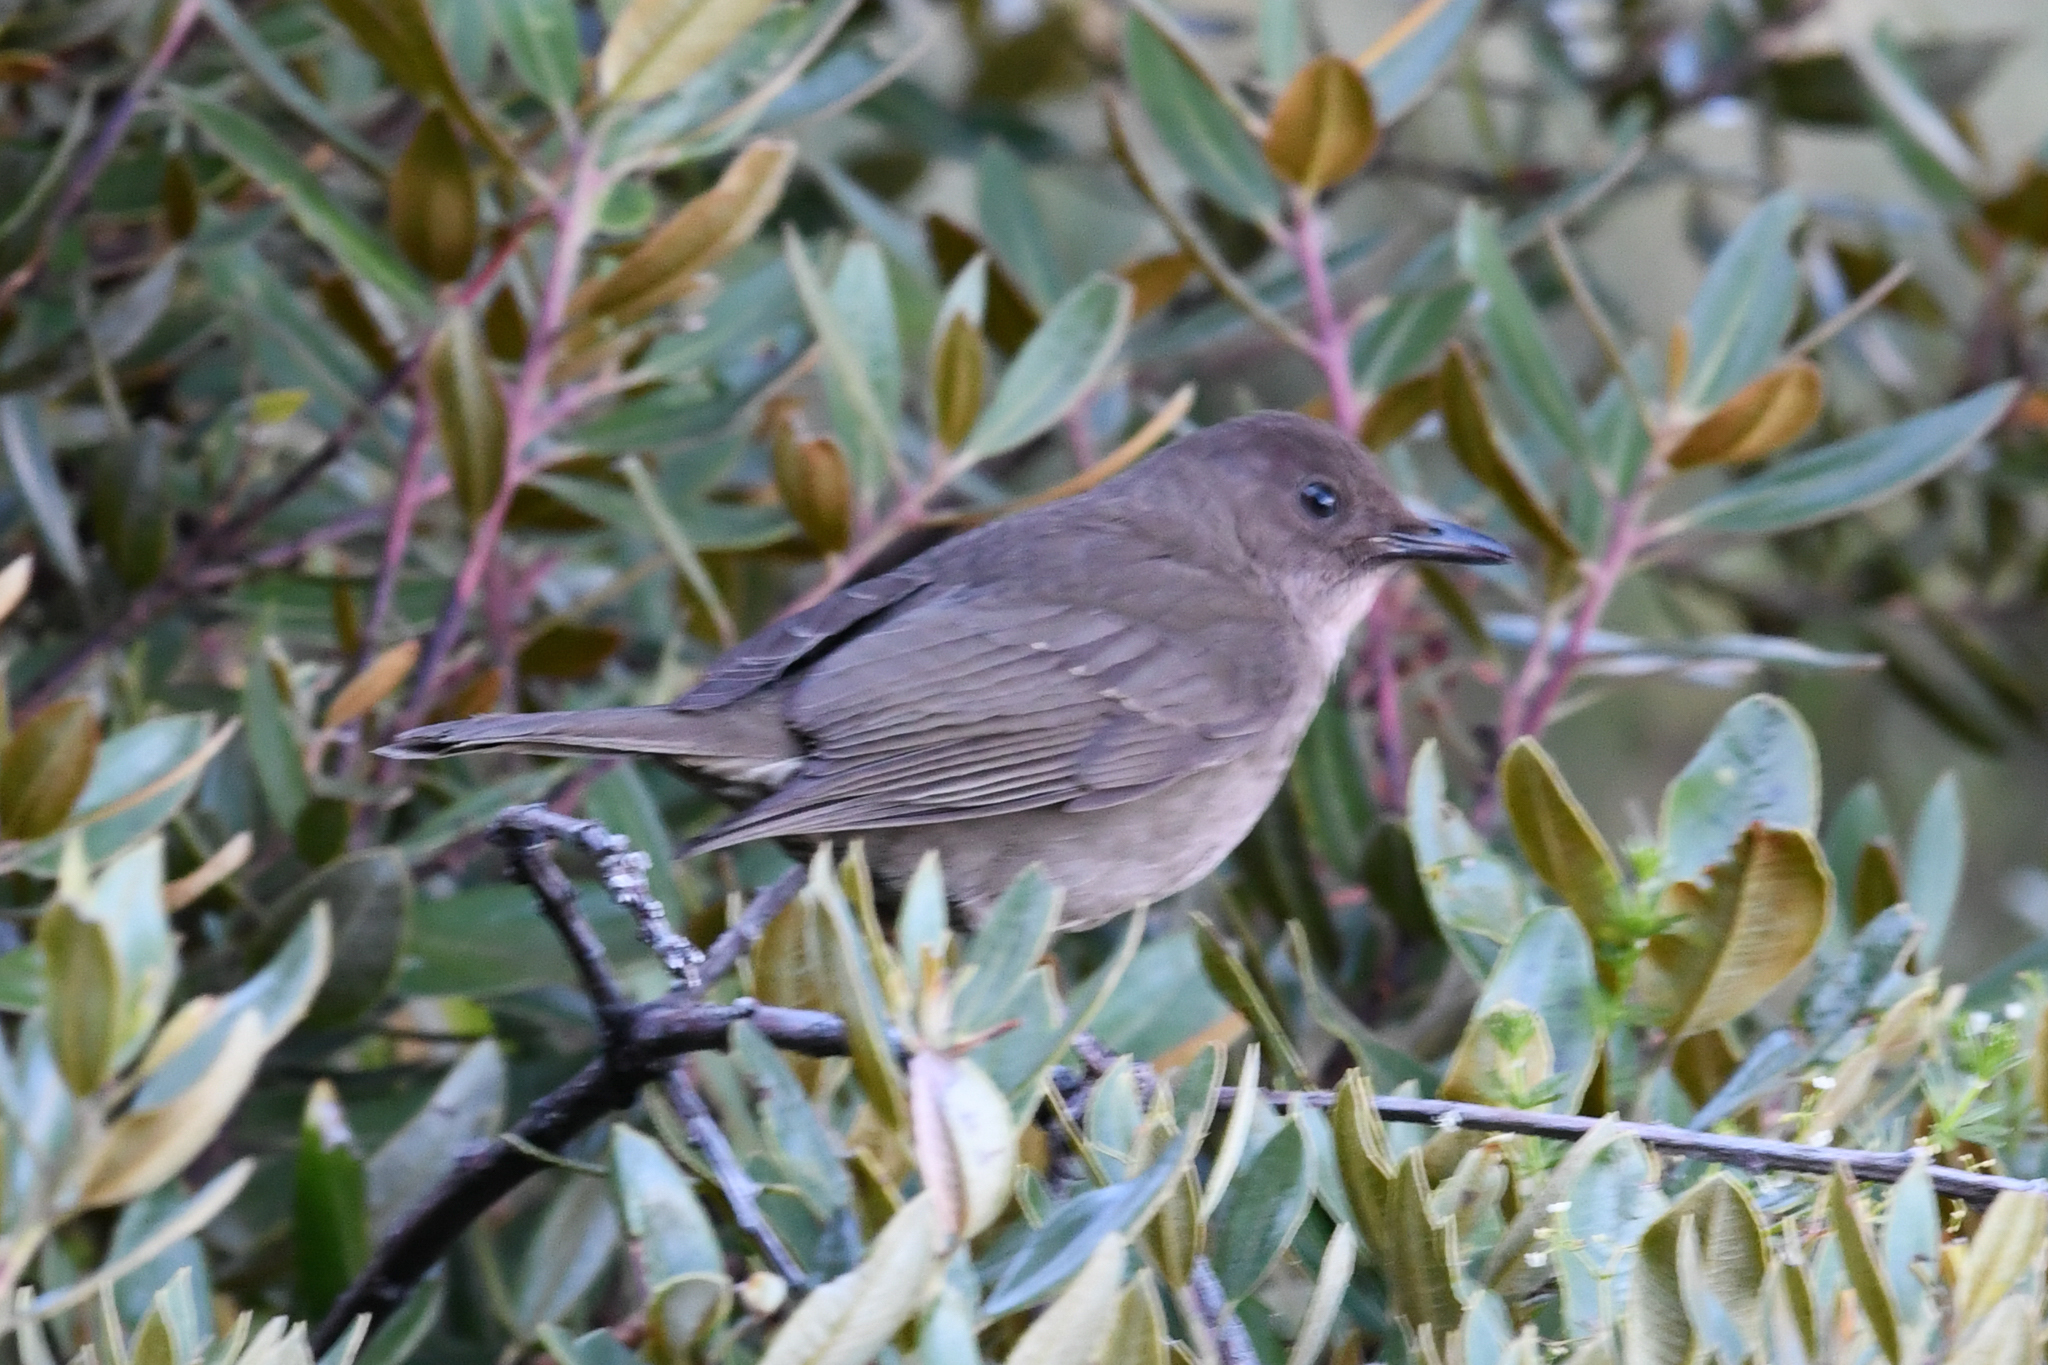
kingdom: Animalia
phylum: Chordata
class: Aves
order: Passeriformes
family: Turdidae
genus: Turdus
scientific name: Turdus plebejus
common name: Mountain thrush
